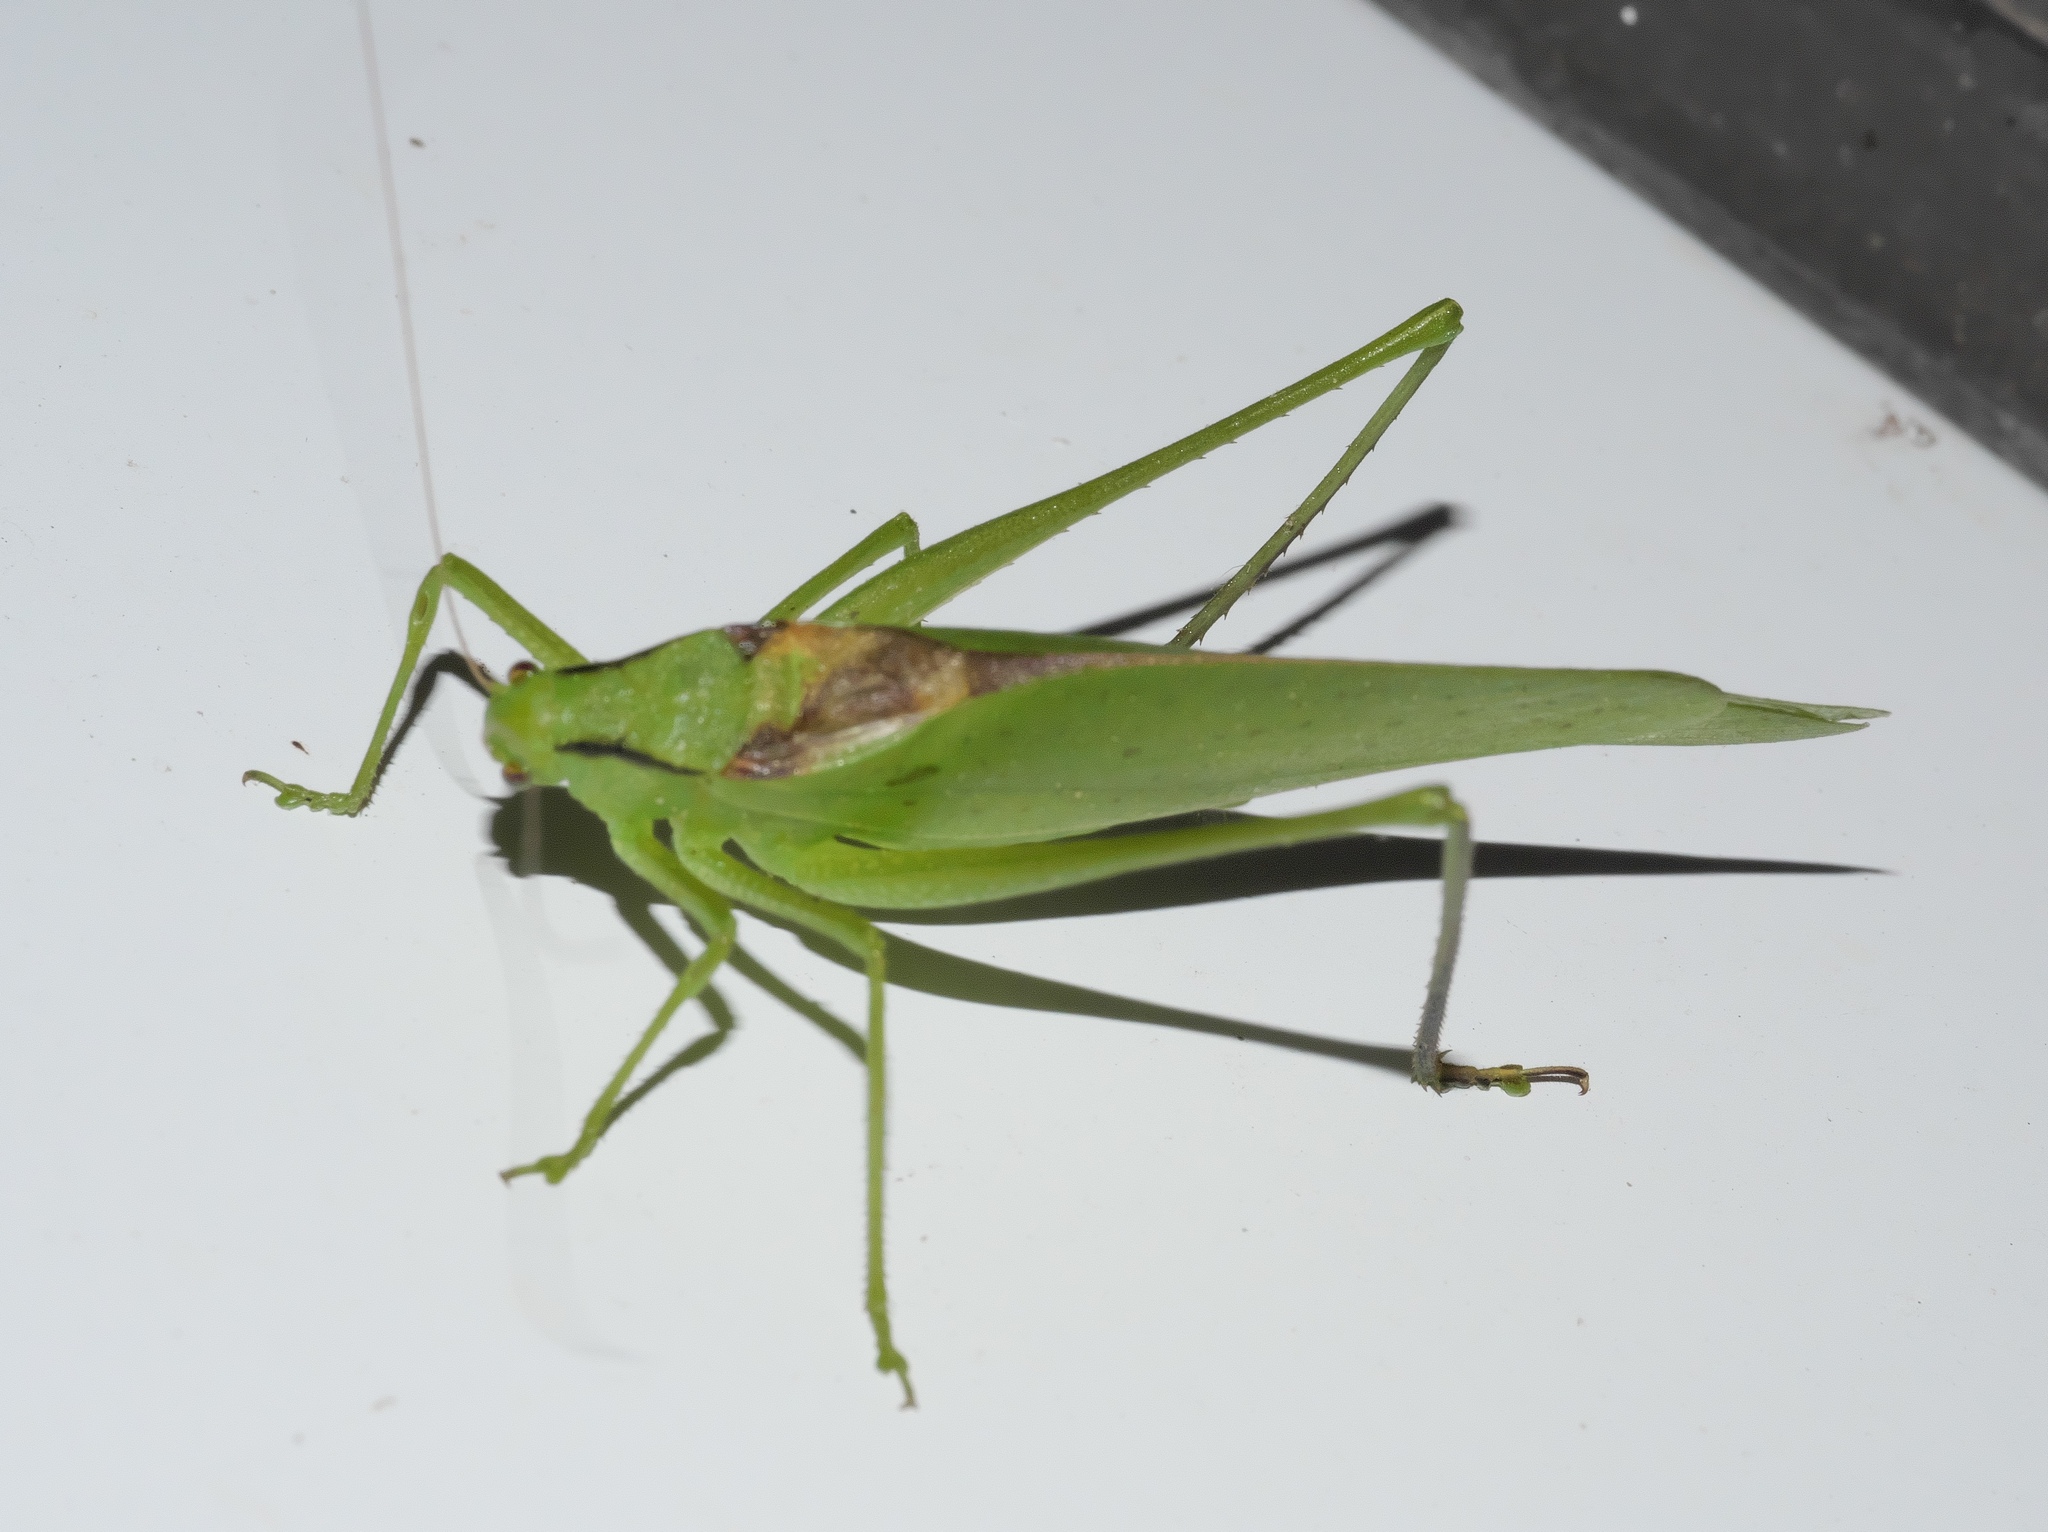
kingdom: Animalia
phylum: Arthropoda
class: Insecta
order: Orthoptera
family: Tettigoniidae
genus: Amblycorypha
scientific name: Amblycorypha oblongifolia
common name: Oblong-winged katydid
